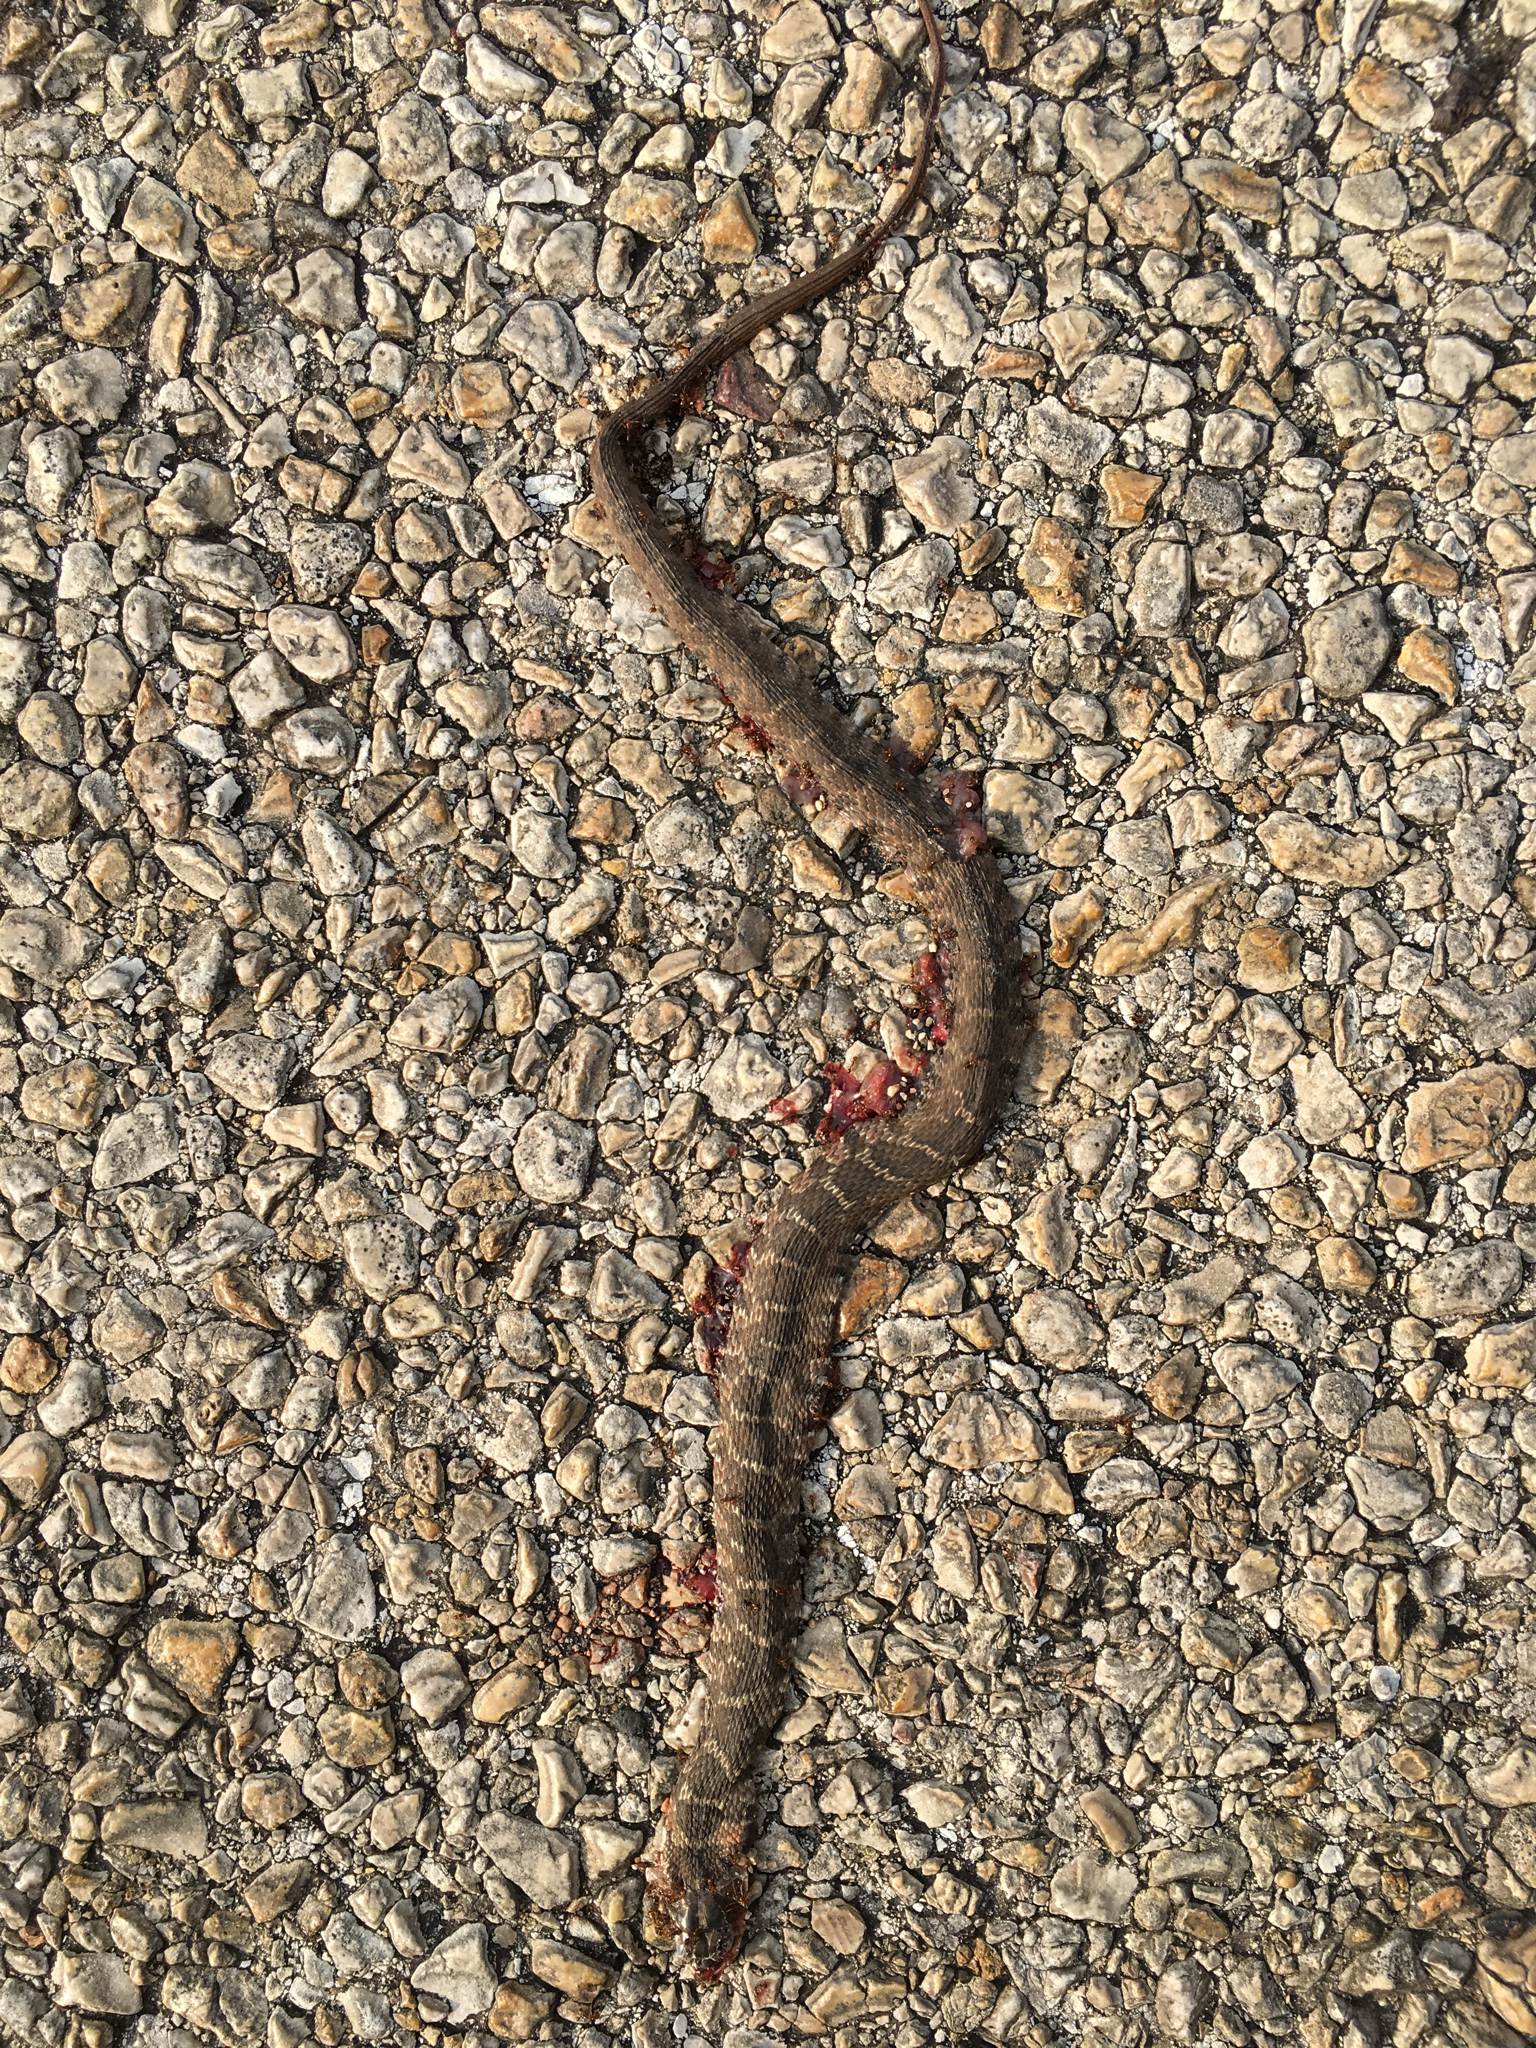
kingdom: Animalia
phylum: Chordata
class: Squamata
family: Colubridae
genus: Nerodia
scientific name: Nerodia erythrogaster
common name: Plainbelly water snake
